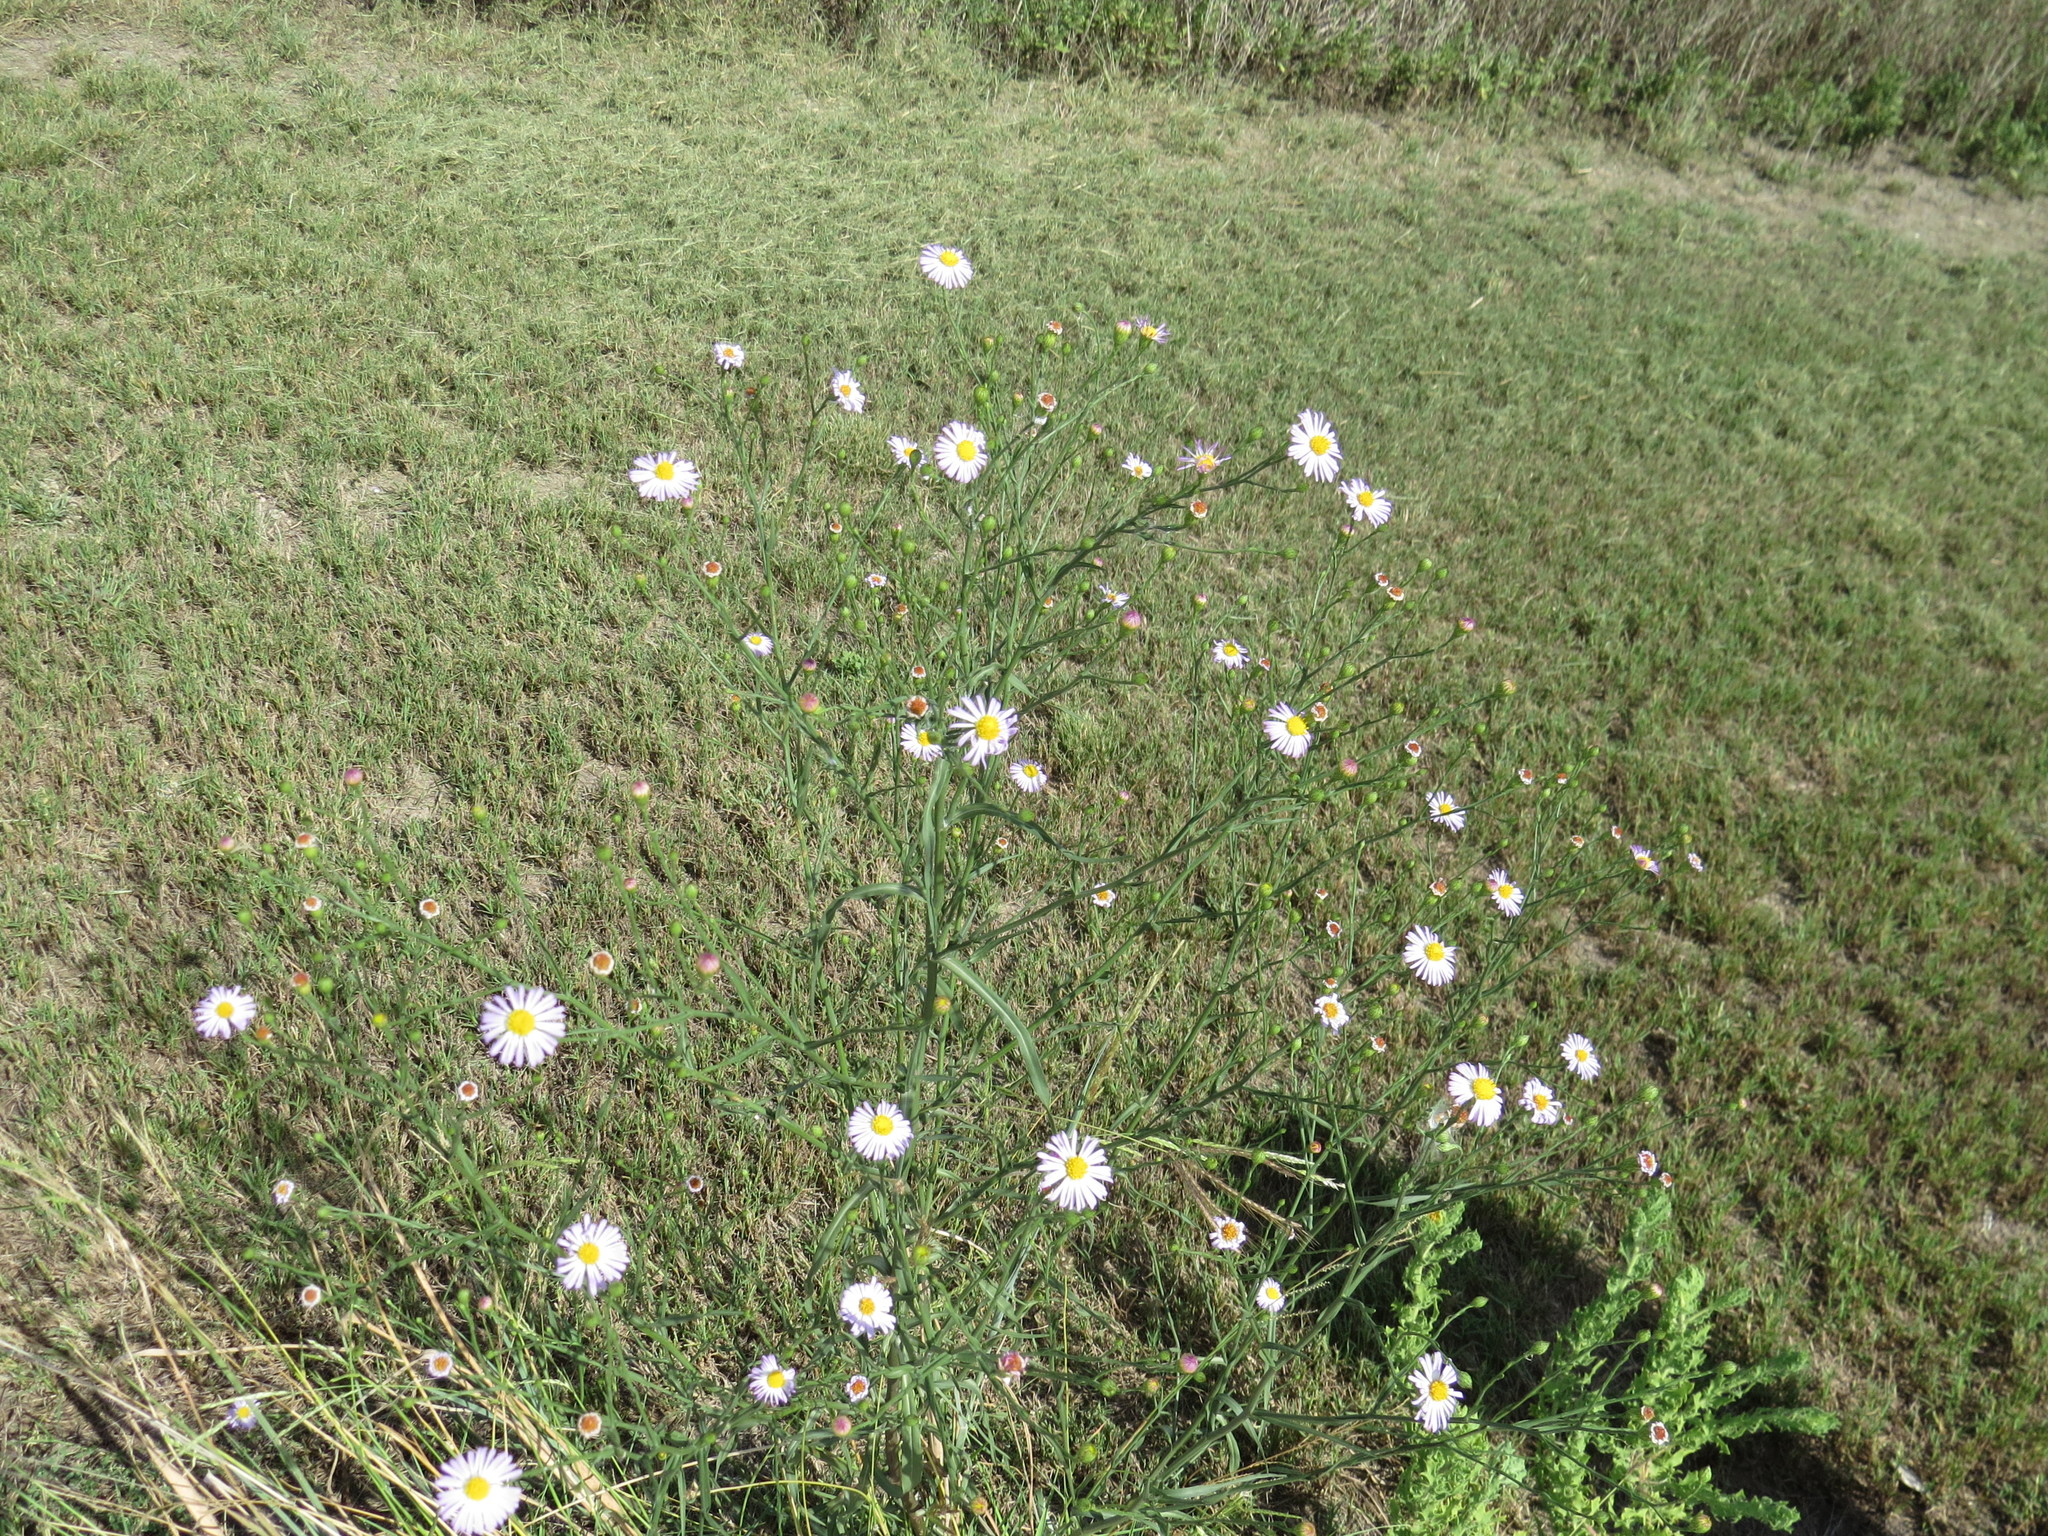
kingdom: Plantae
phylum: Tracheophyta
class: Magnoliopsida
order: Asterales
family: Asteraceae
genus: Symphyotrichum
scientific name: Symphyotrichum divaricatum
